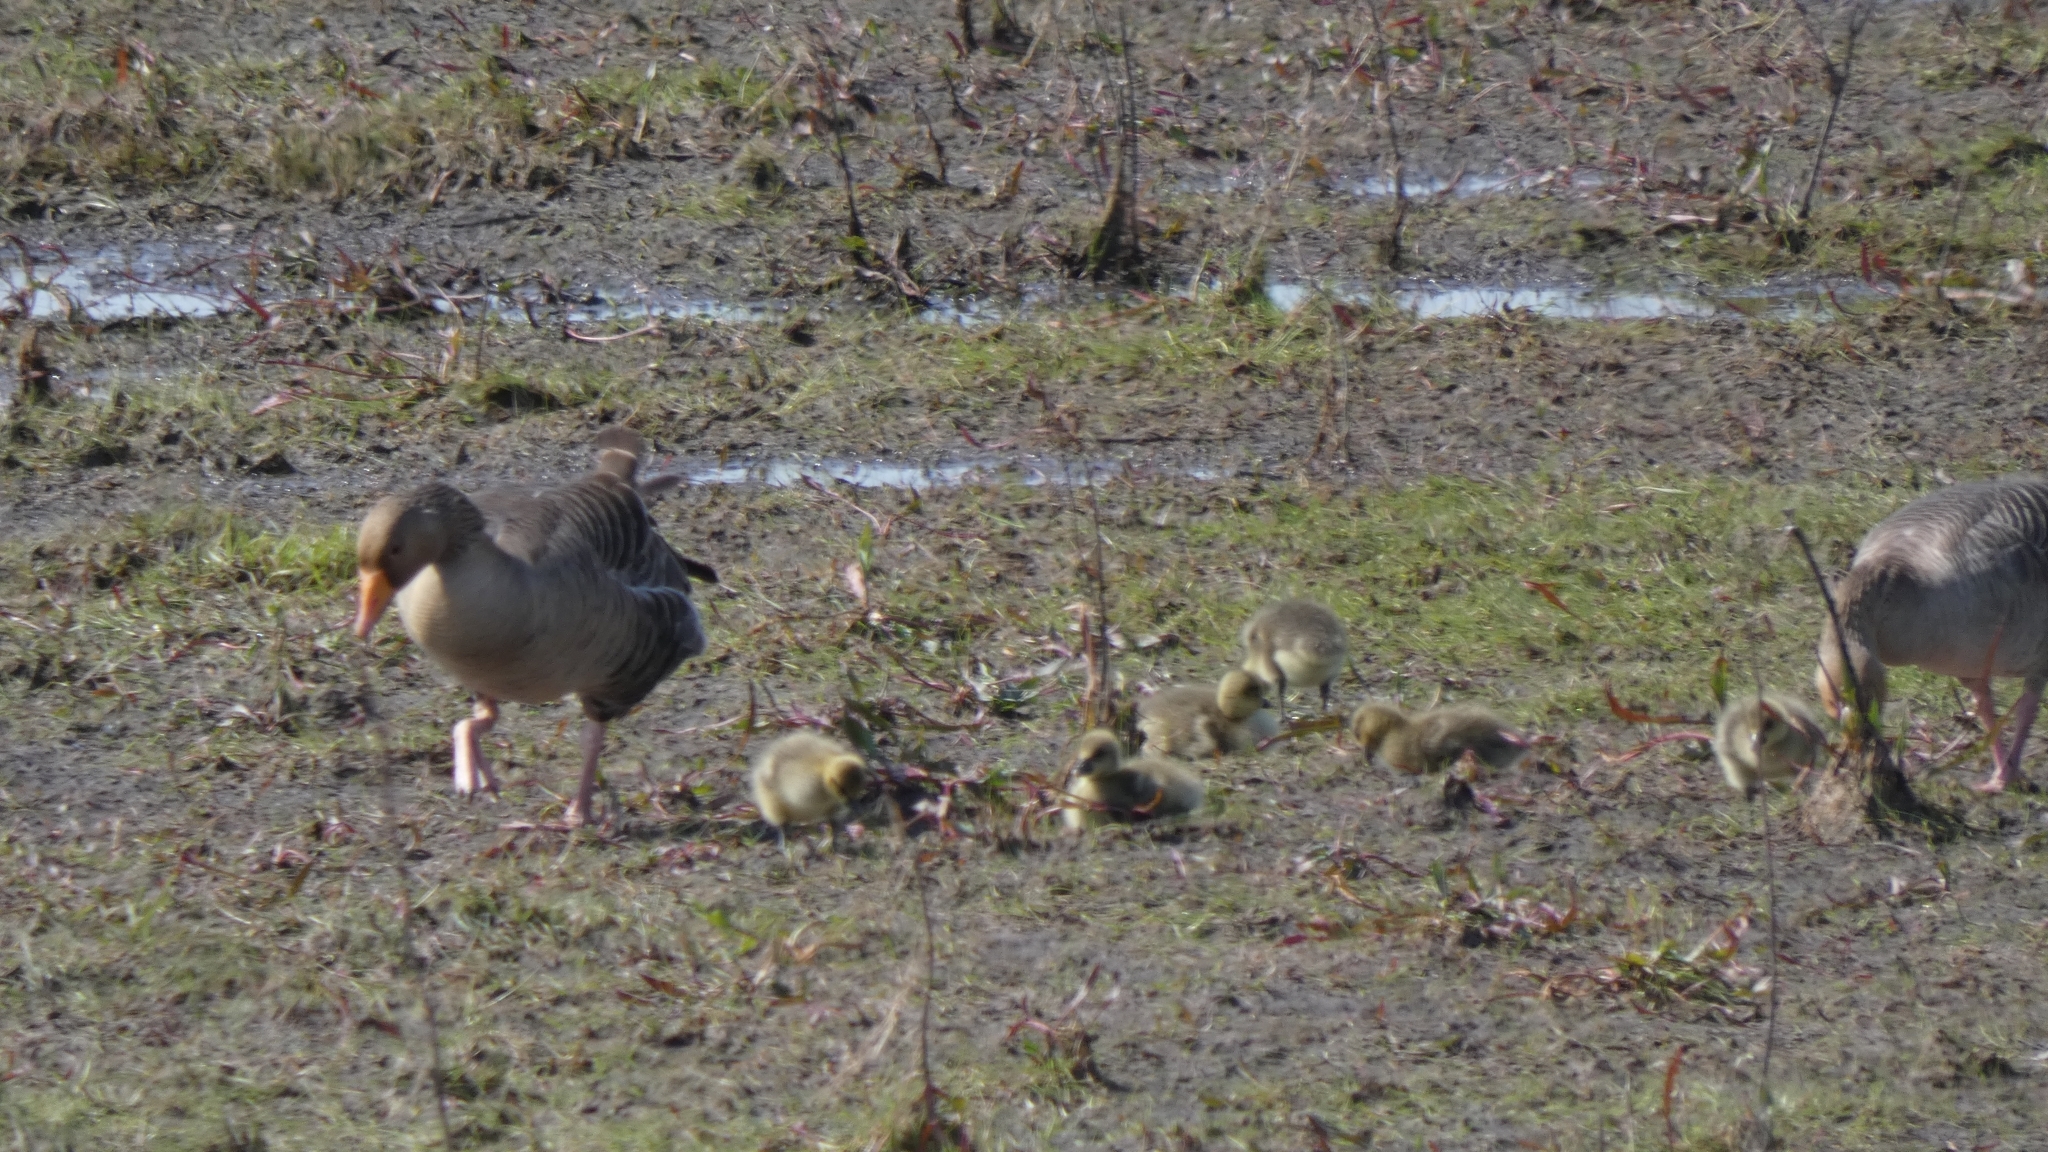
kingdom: Animalia
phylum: Chordata
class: Aves
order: Anseriformes
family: Anatidae
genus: Anser
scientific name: Anser anser
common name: Greylag goose
